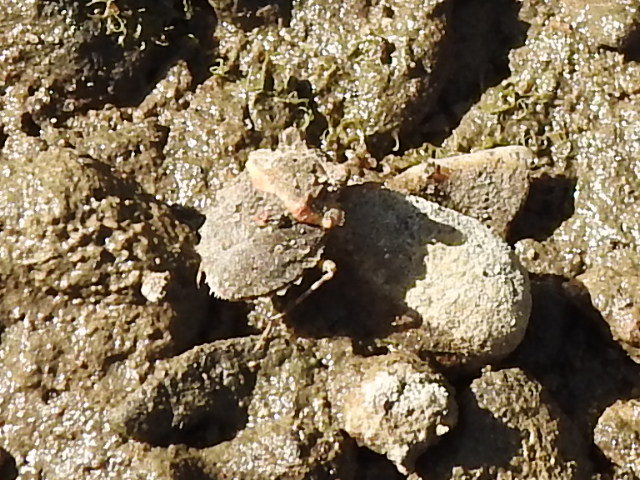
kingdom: Animalia
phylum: Arthropoda
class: Insecta
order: Hemiptera
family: Gelastocoridae
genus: Gelastocoris
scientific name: Gelastocoris oculatus
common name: Toad bug
